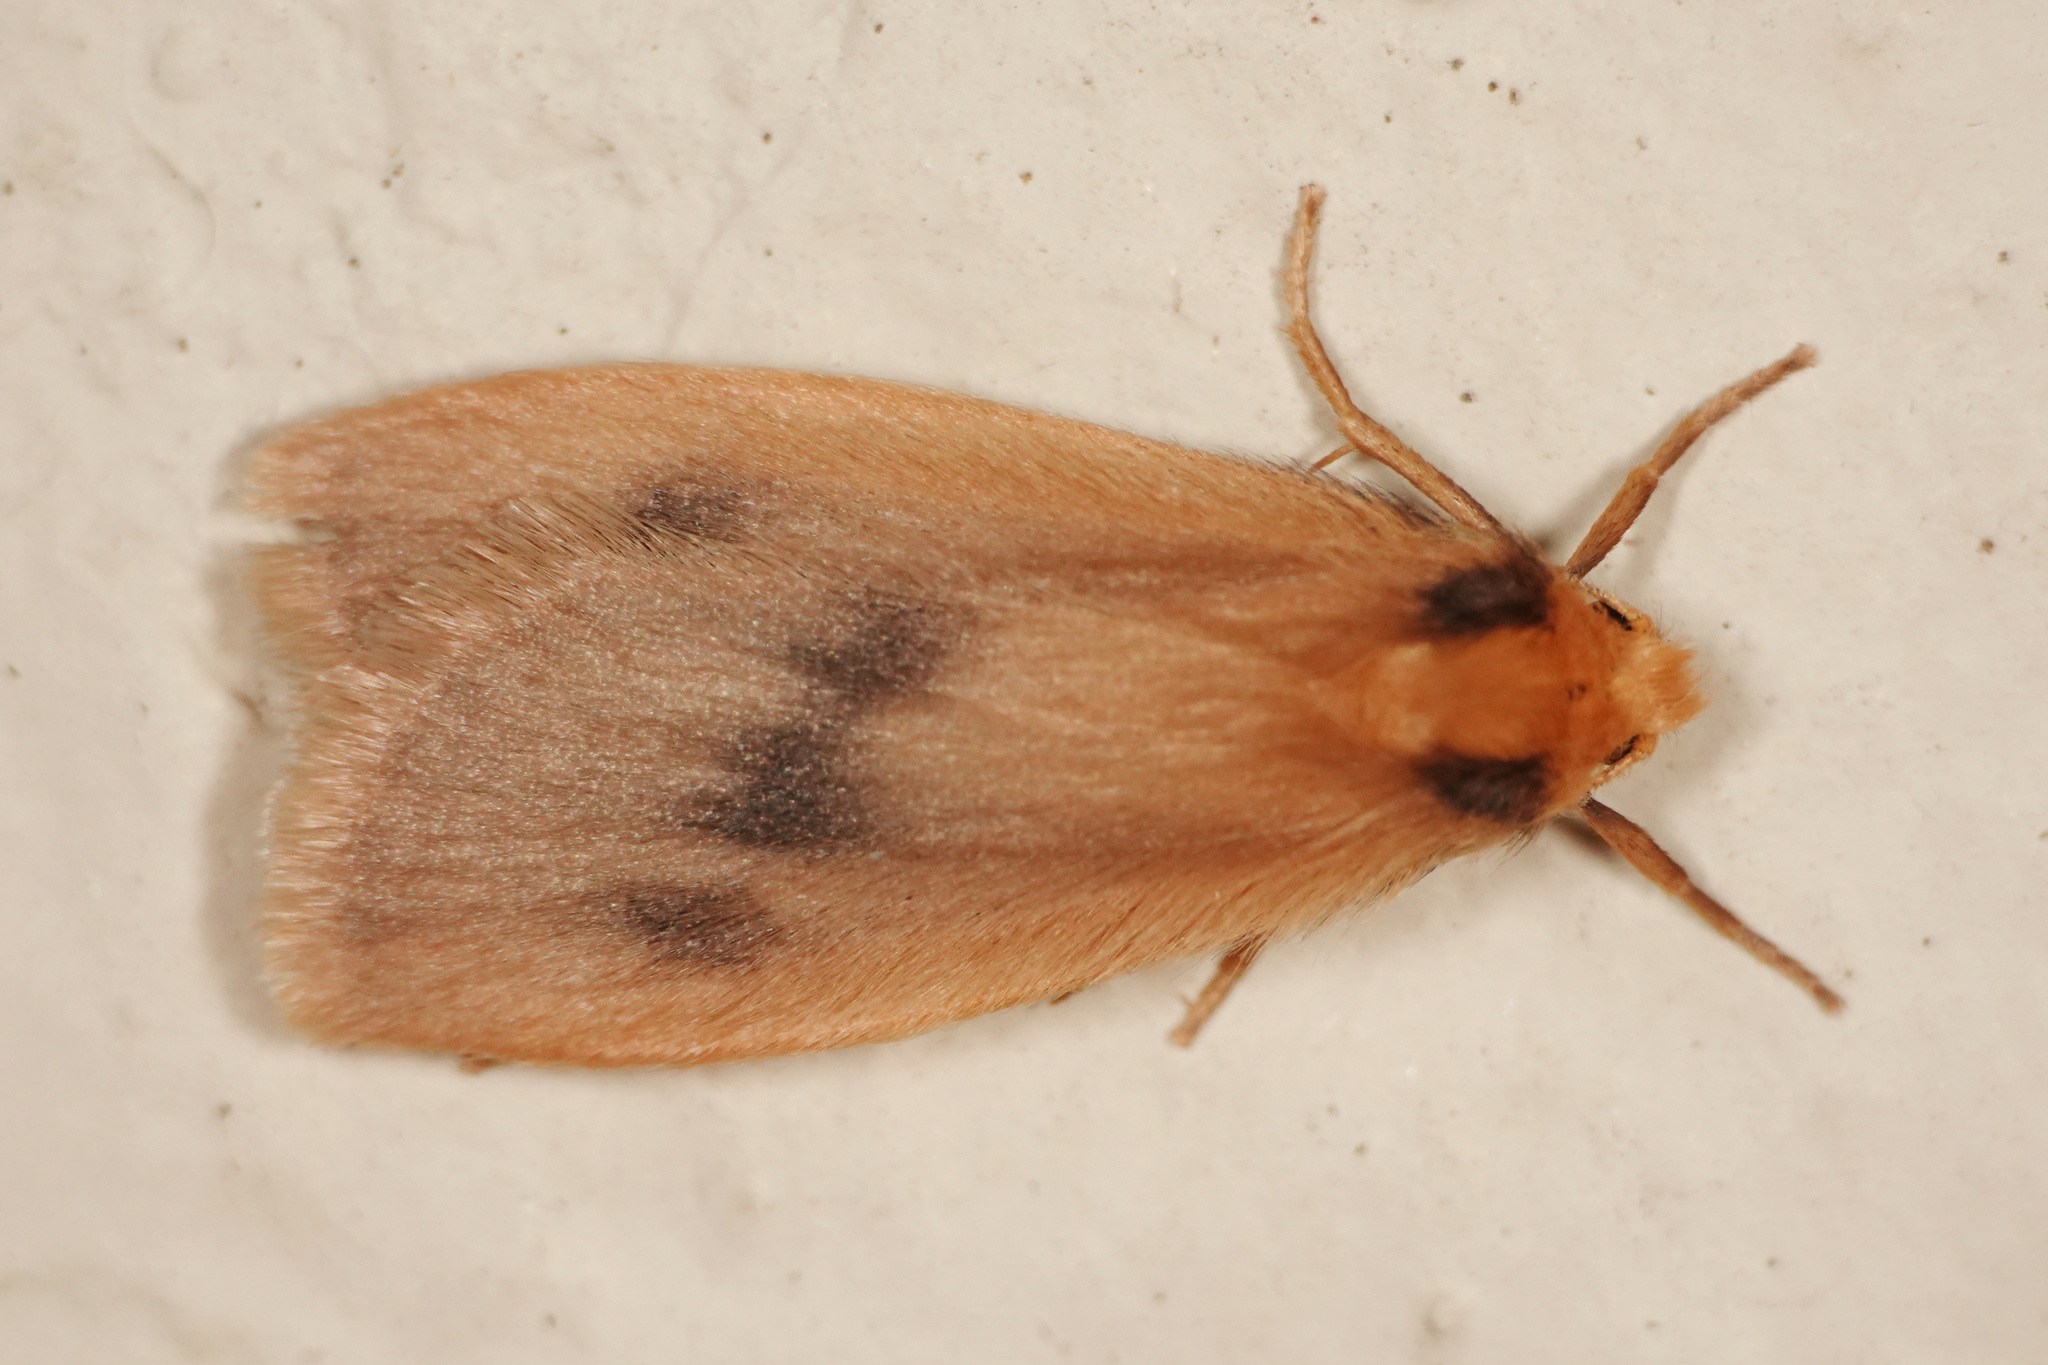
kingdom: Animalia
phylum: Arthropoda
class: Insecta
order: Lepidoptera
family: Erebidae
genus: Threnosia
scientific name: Threnosia heminephes
